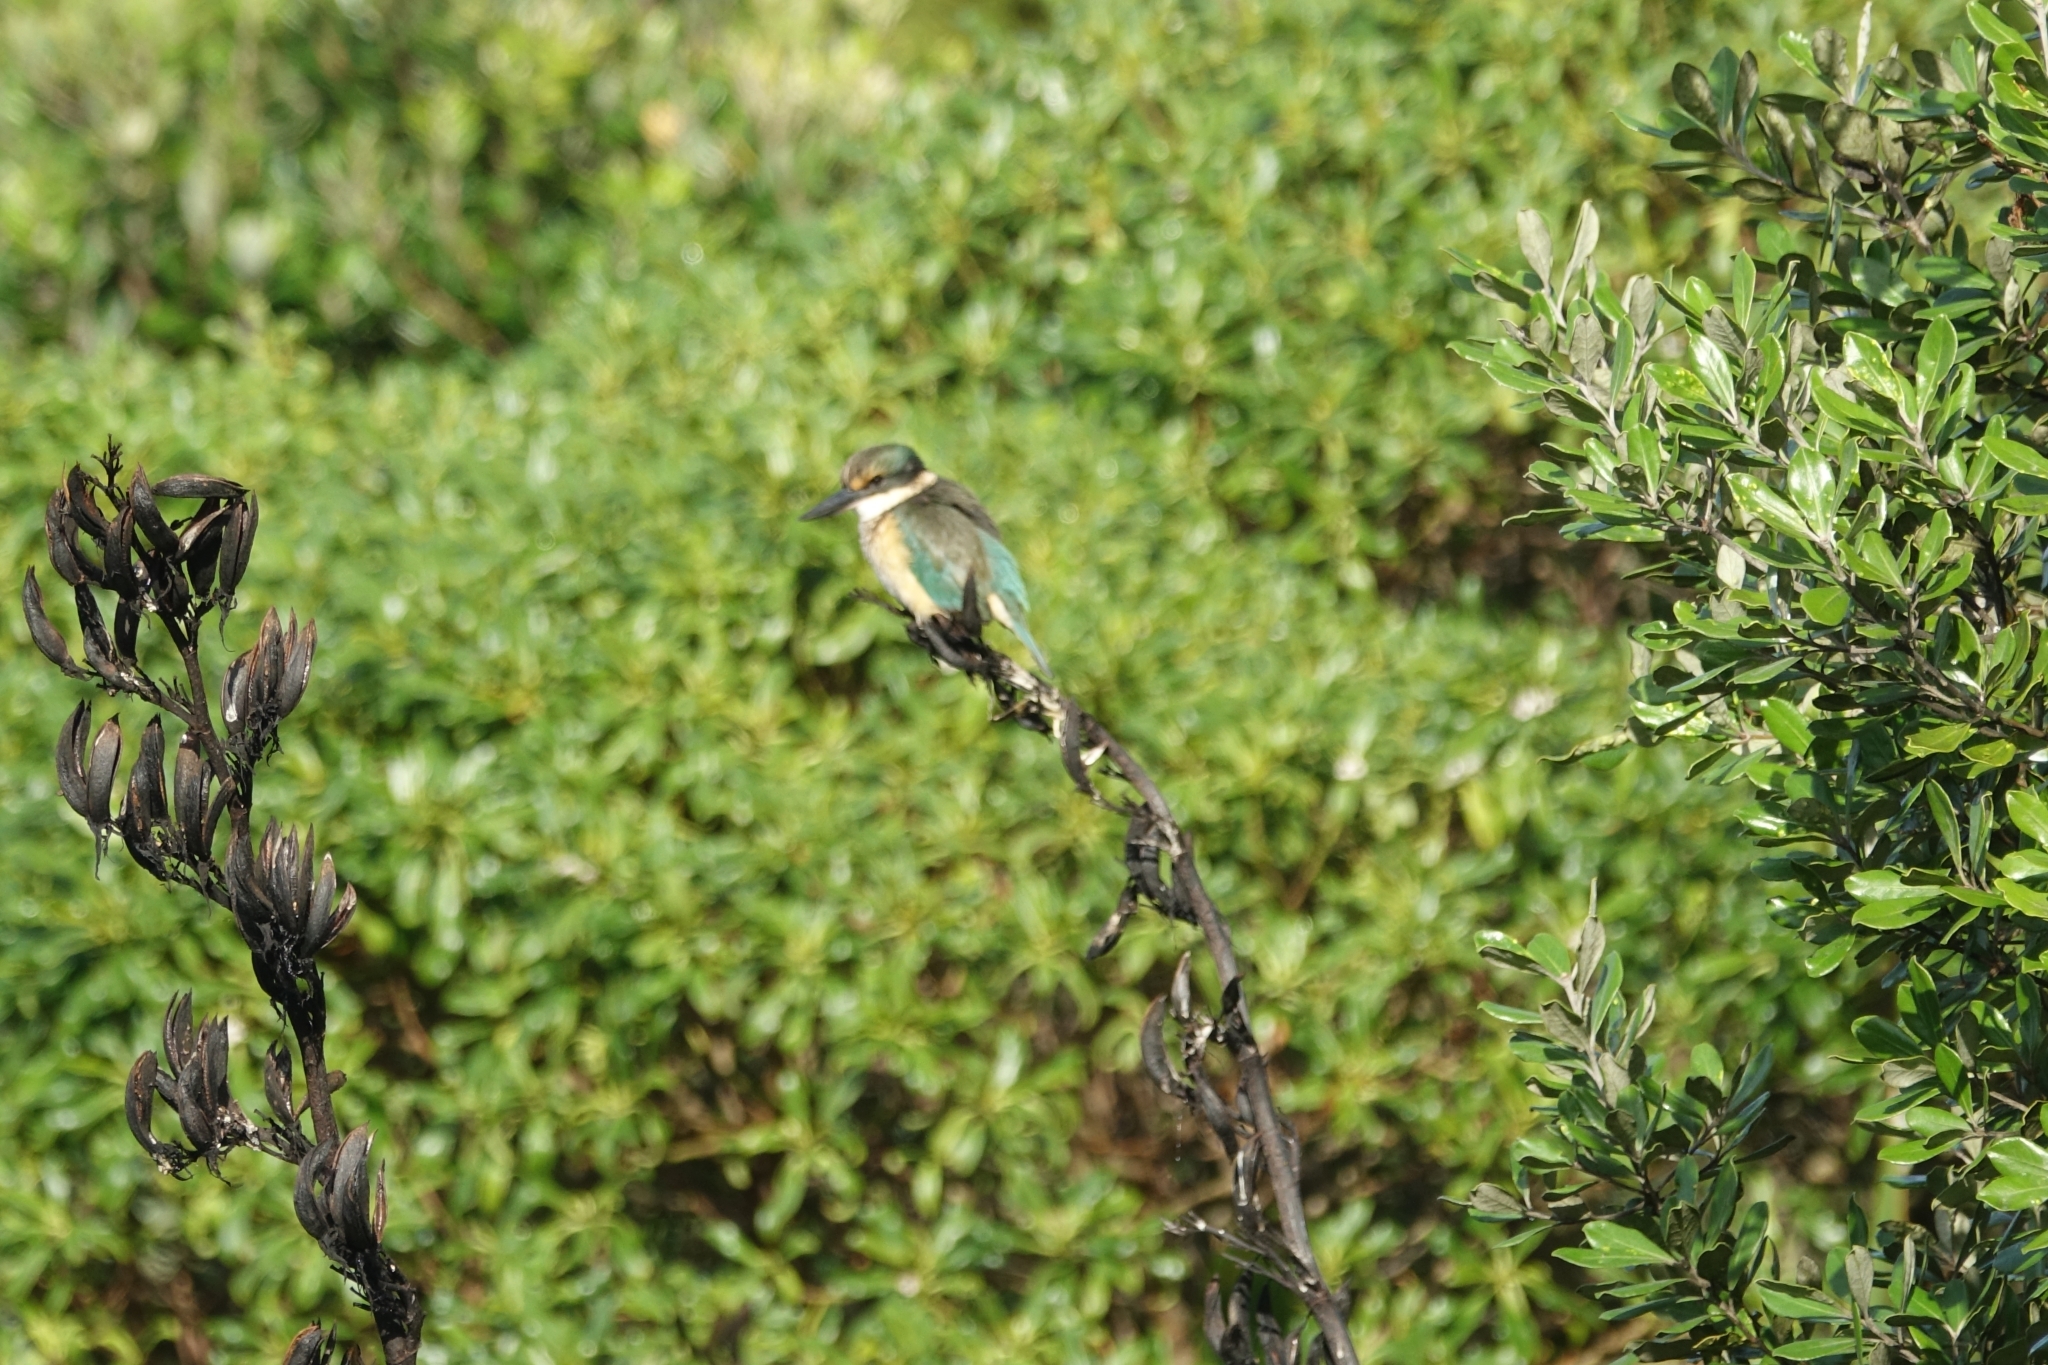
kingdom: Animalia
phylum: Chordata
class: Aves
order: Coraciiformes
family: Alcedinidae
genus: Todiramphus
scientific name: Todiramphus sanctus
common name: Sacred kingfisher
